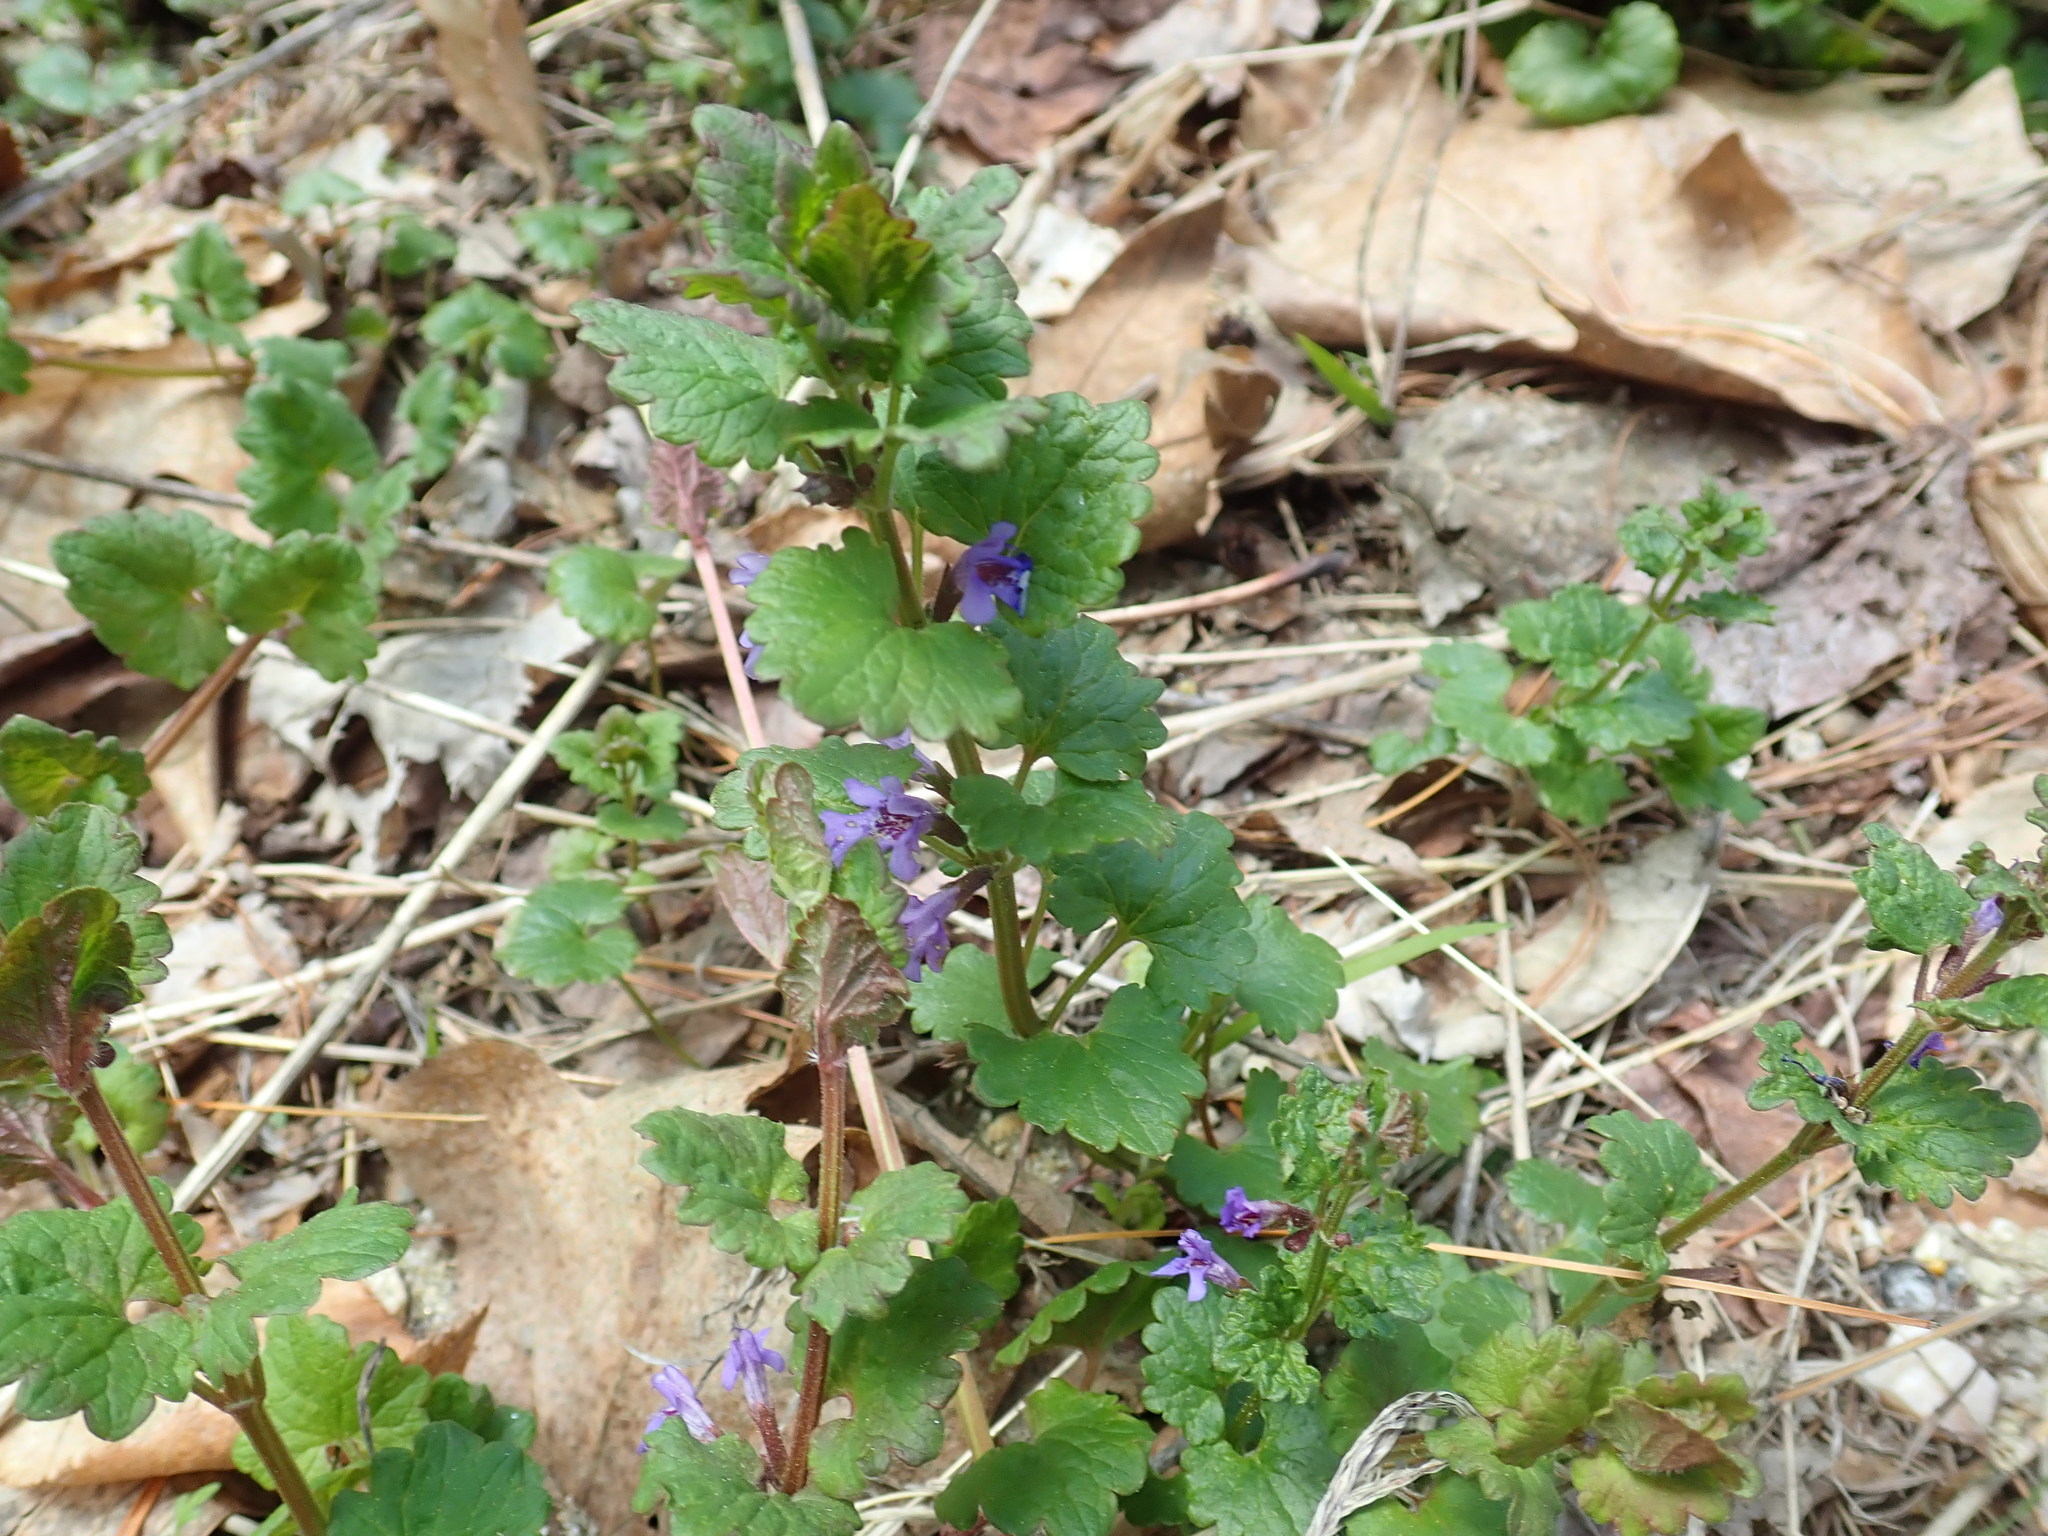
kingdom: Plantae
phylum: Tracheophyta
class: Magnoliopsida
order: Lamiales
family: Lamiaceae
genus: Glechoma
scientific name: Glechoma hederacea
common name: Ground ivy
